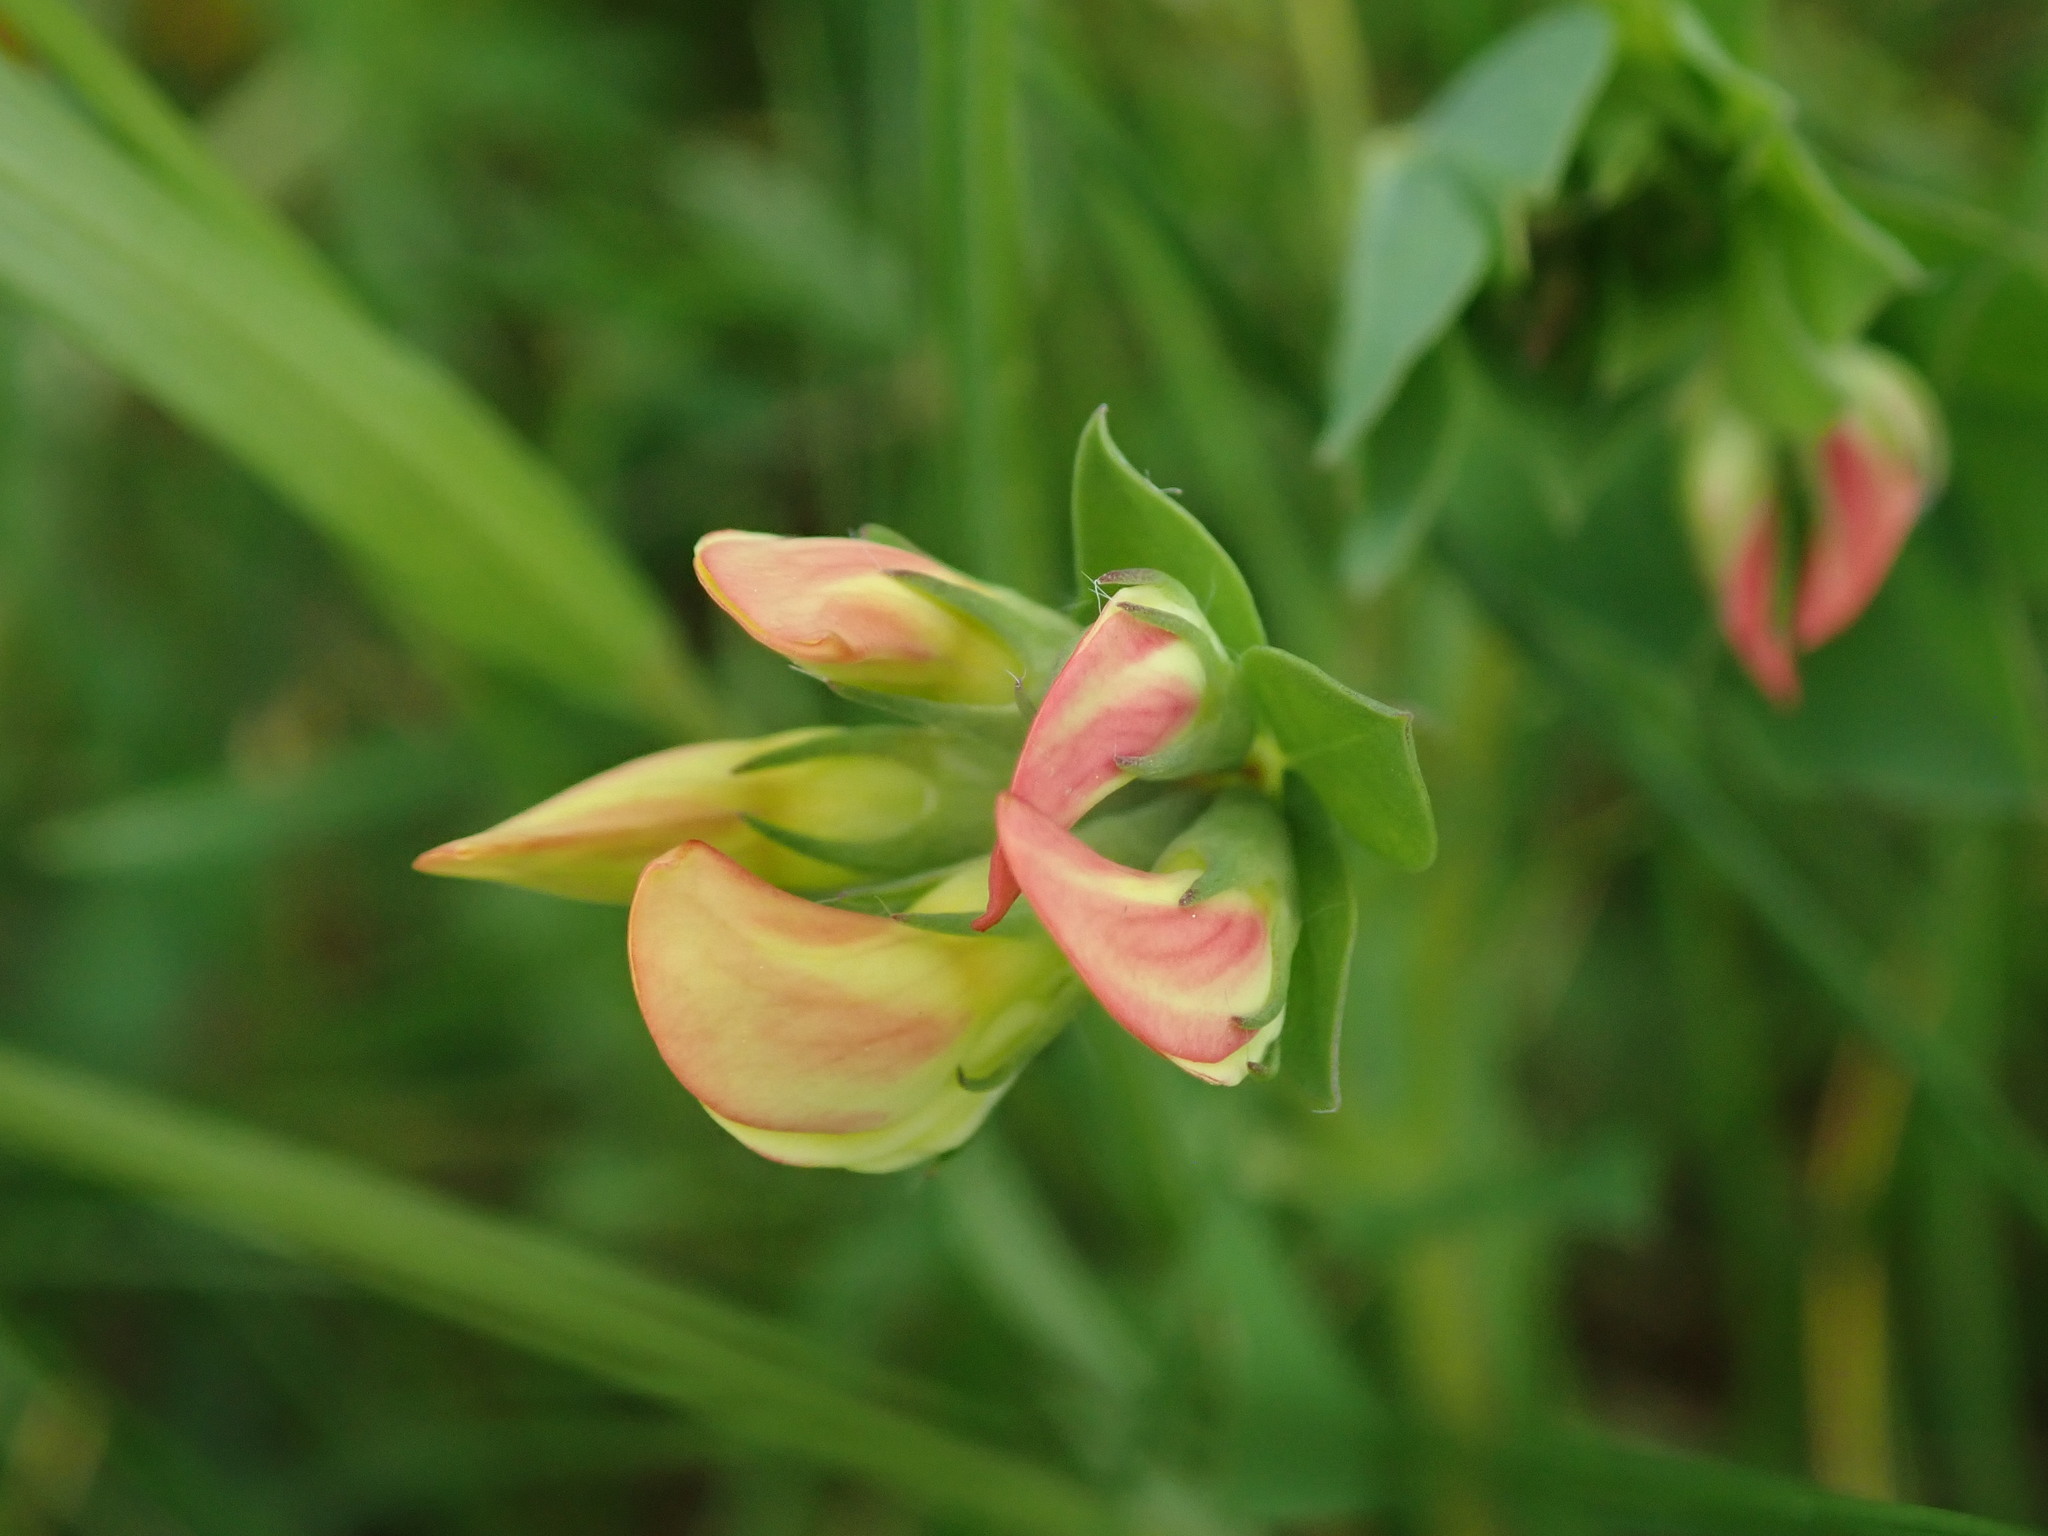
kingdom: Plantae
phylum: Tracheophyta
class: Magnoliopsida
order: Fabales
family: Fabaceae
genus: Lotus
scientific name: Lotus corniculatus
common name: Common bird's-foot-trefoil
